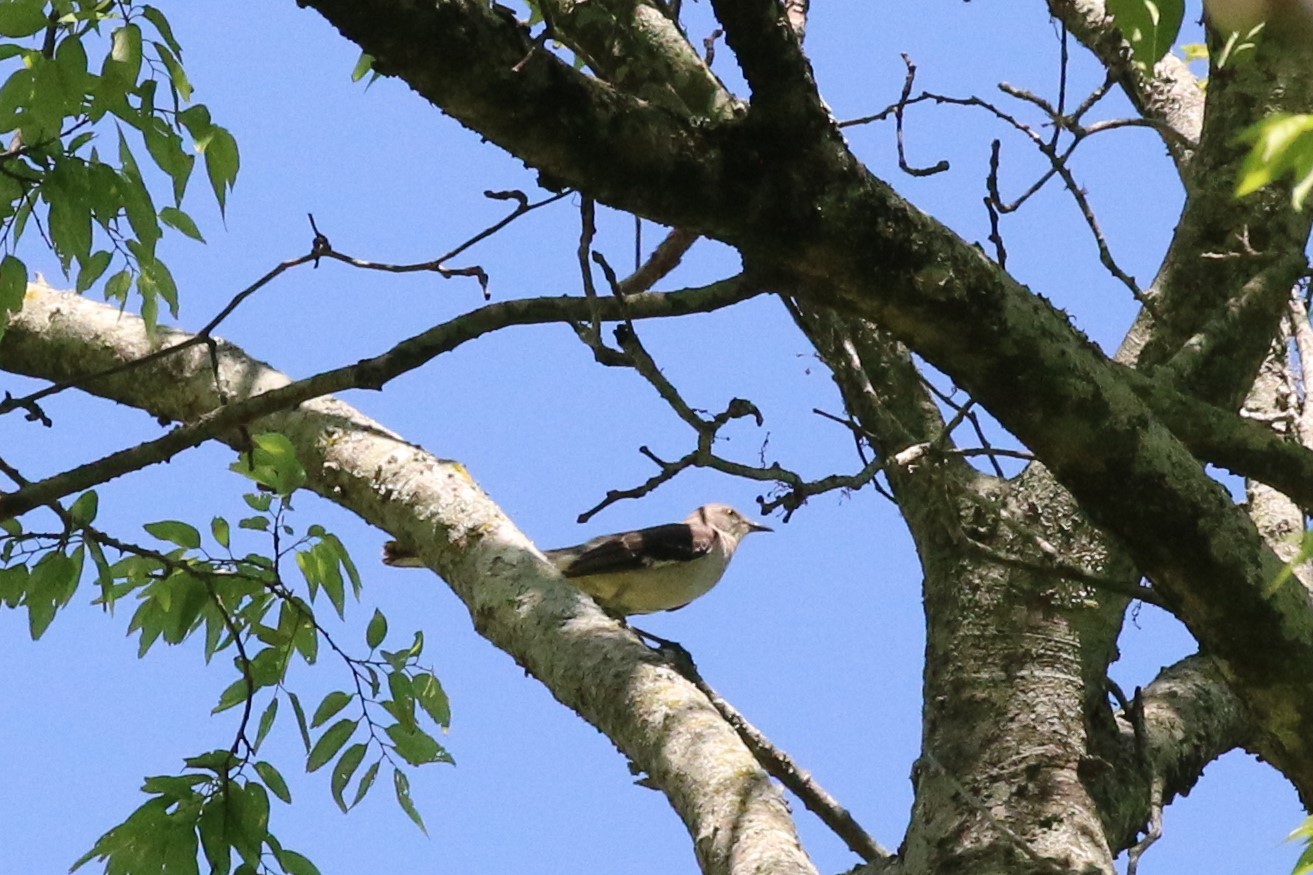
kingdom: Animalia
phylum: Chordata
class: Aves
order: Passeriformes
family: Mimidae
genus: Mimus
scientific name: Mimus polyglottos
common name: Northern mockingbird
